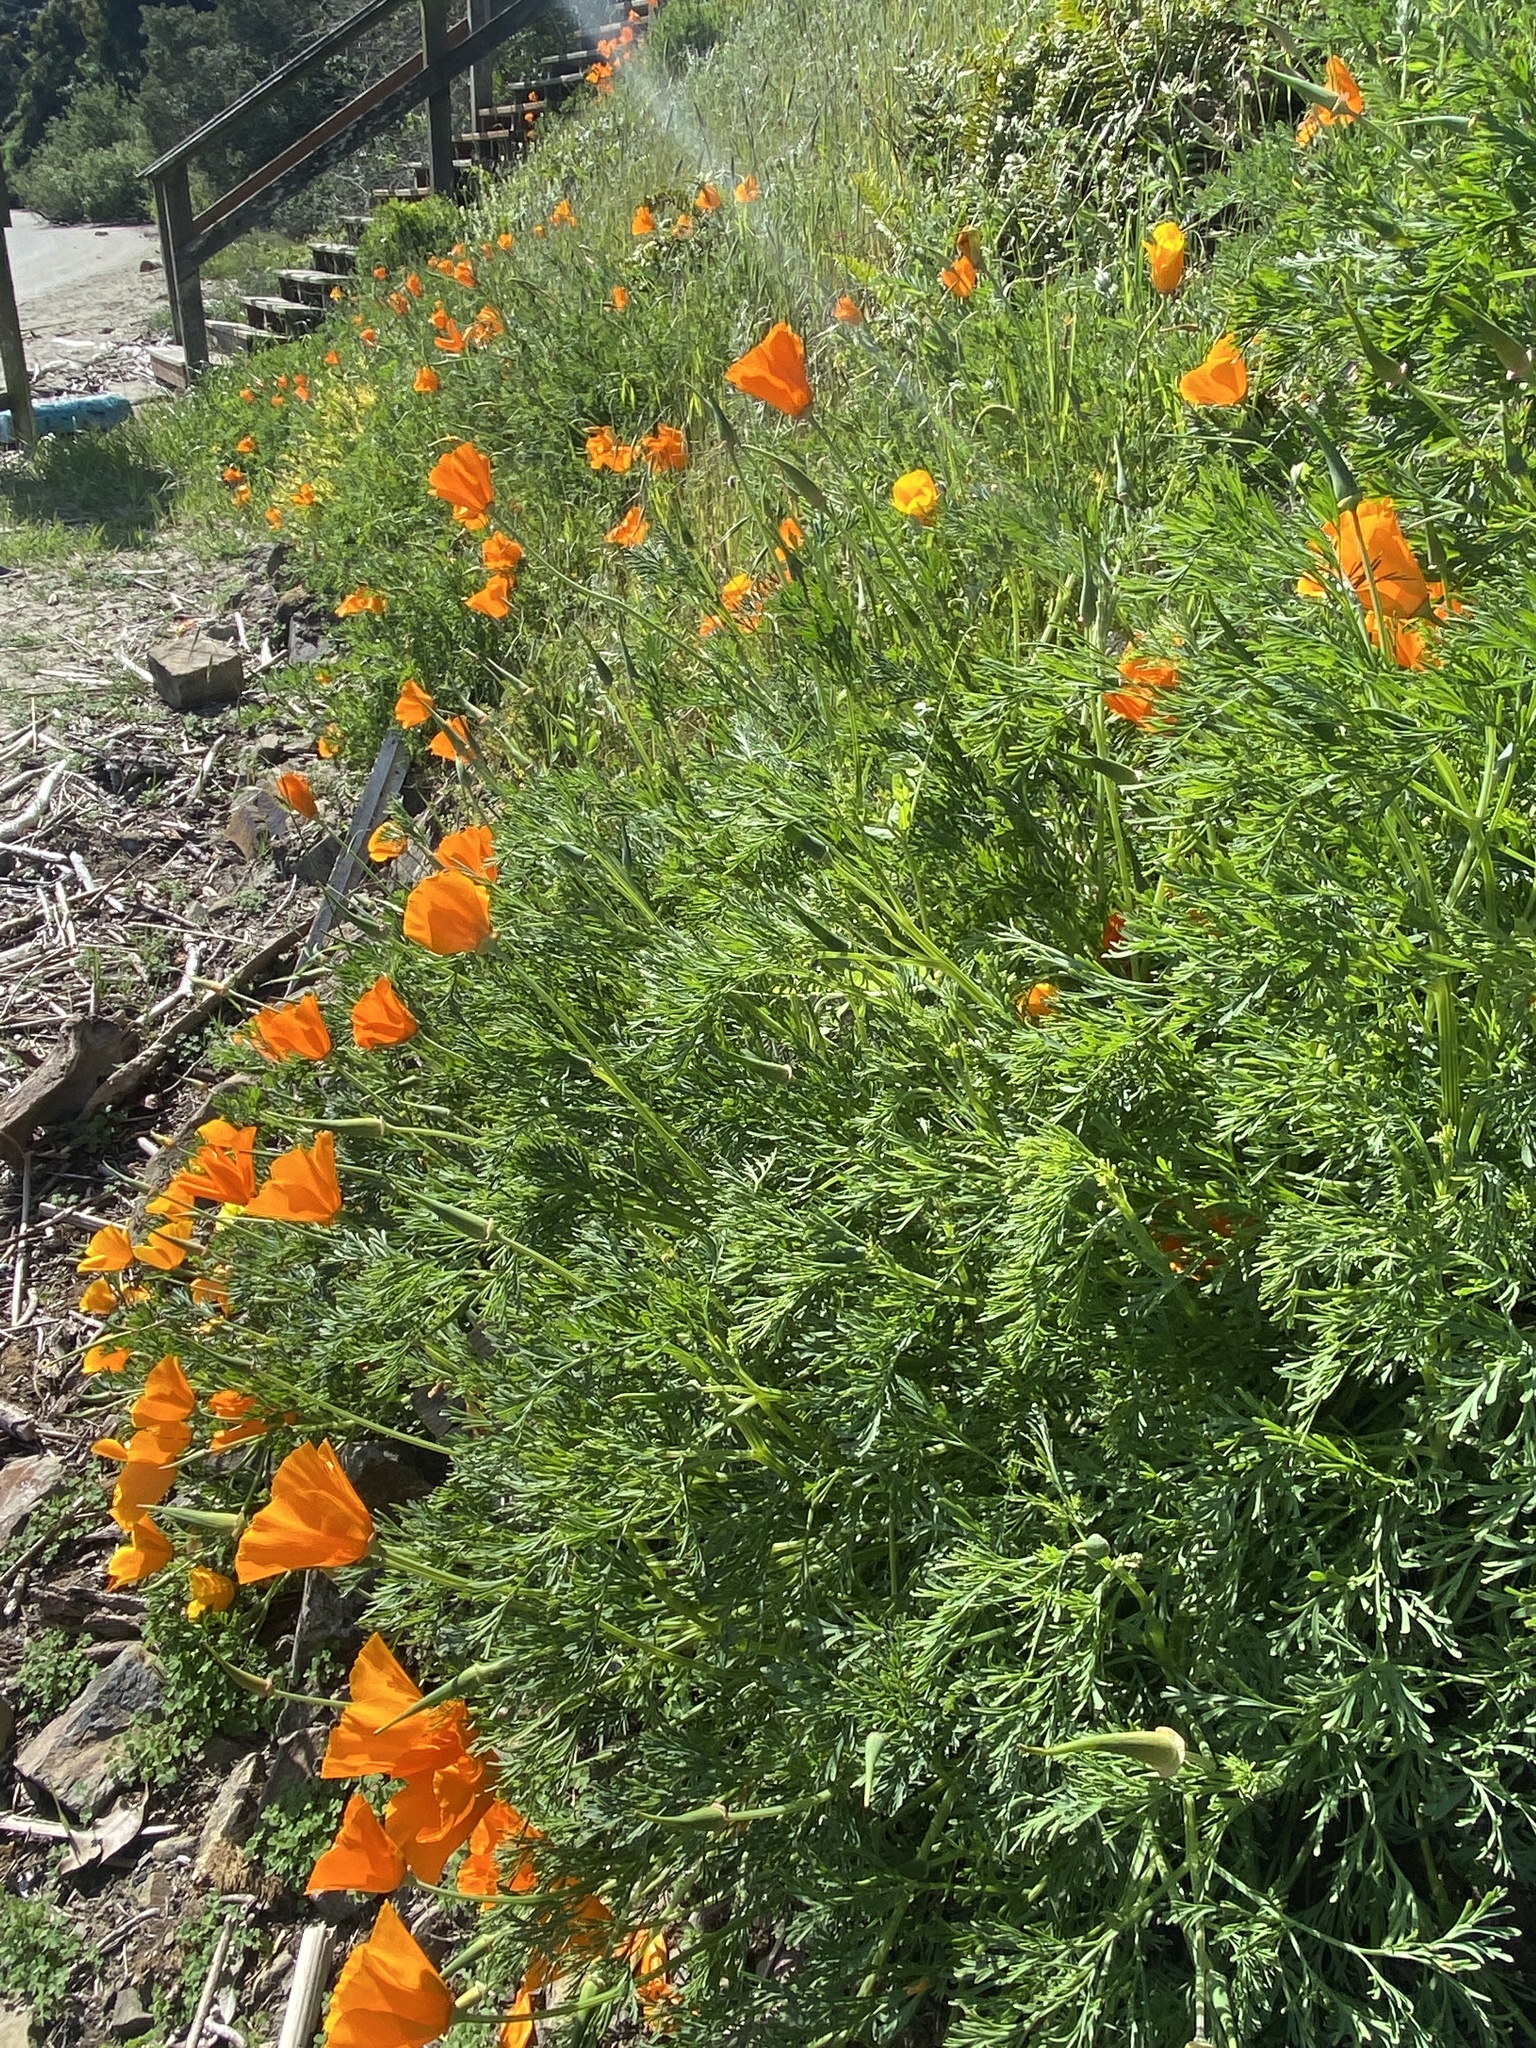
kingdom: Plantae
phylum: Tracheophyta
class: Magnoliopsida
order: Ranunculales
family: Papaveraceae
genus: Eschscholzia
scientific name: Eschscholzia californica
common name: California poppy
